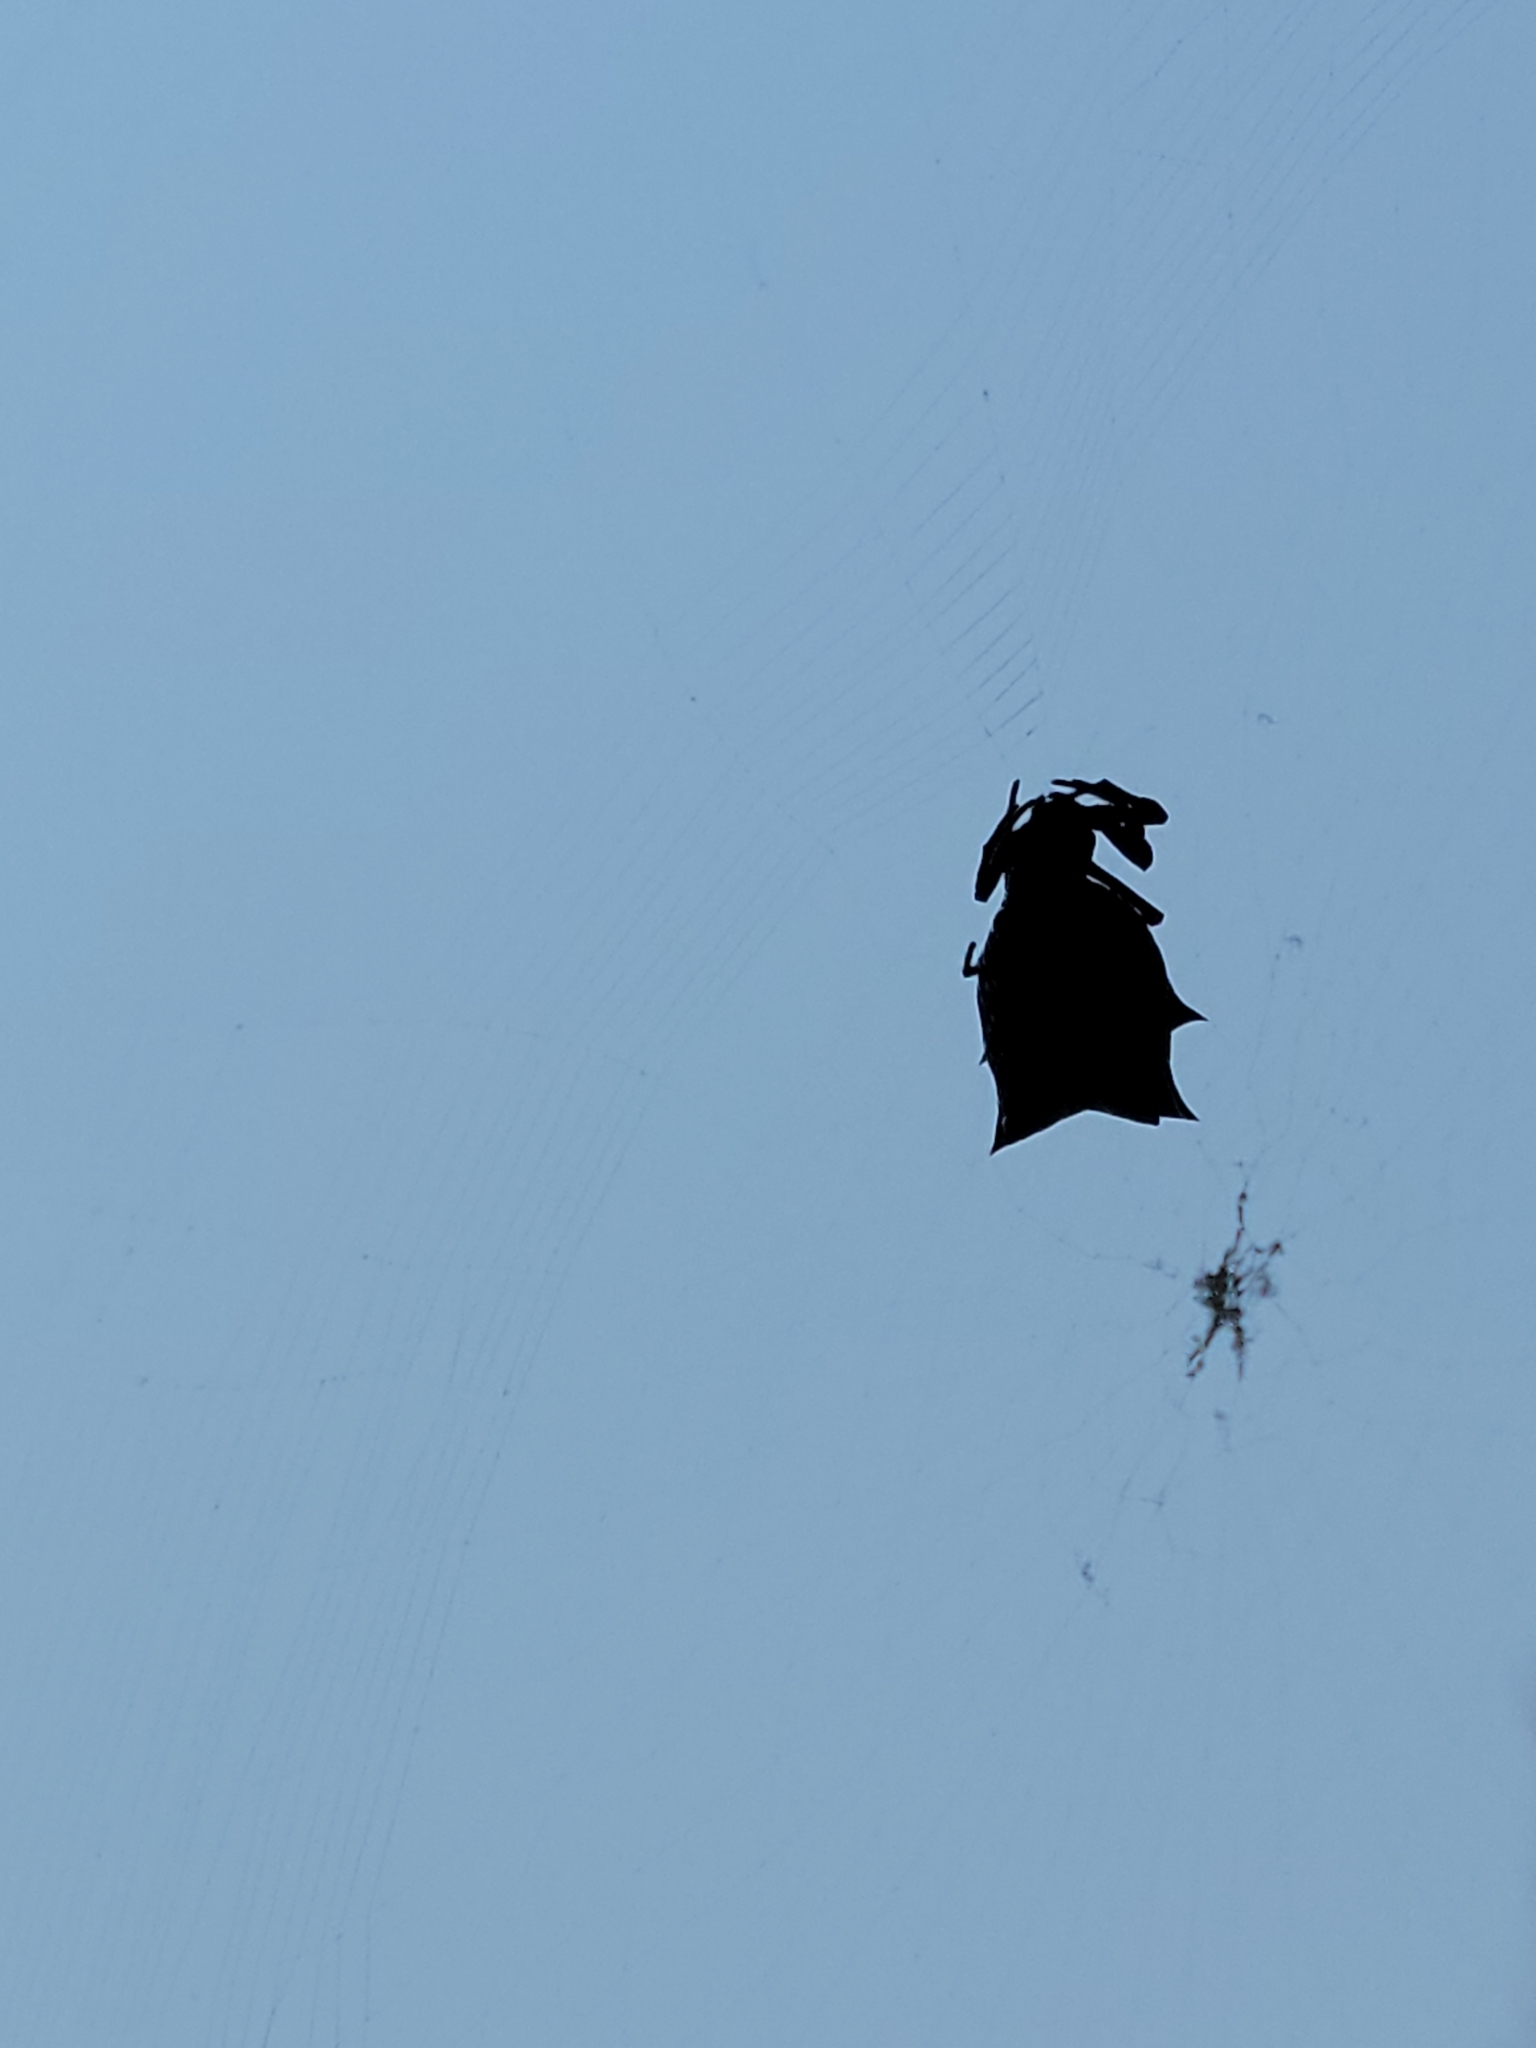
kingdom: Animalia
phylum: Arthropoda
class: Arachnida
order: Araneae
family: Araneidae
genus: Micrathena
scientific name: Micrathena gracilis
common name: Orb weavers
